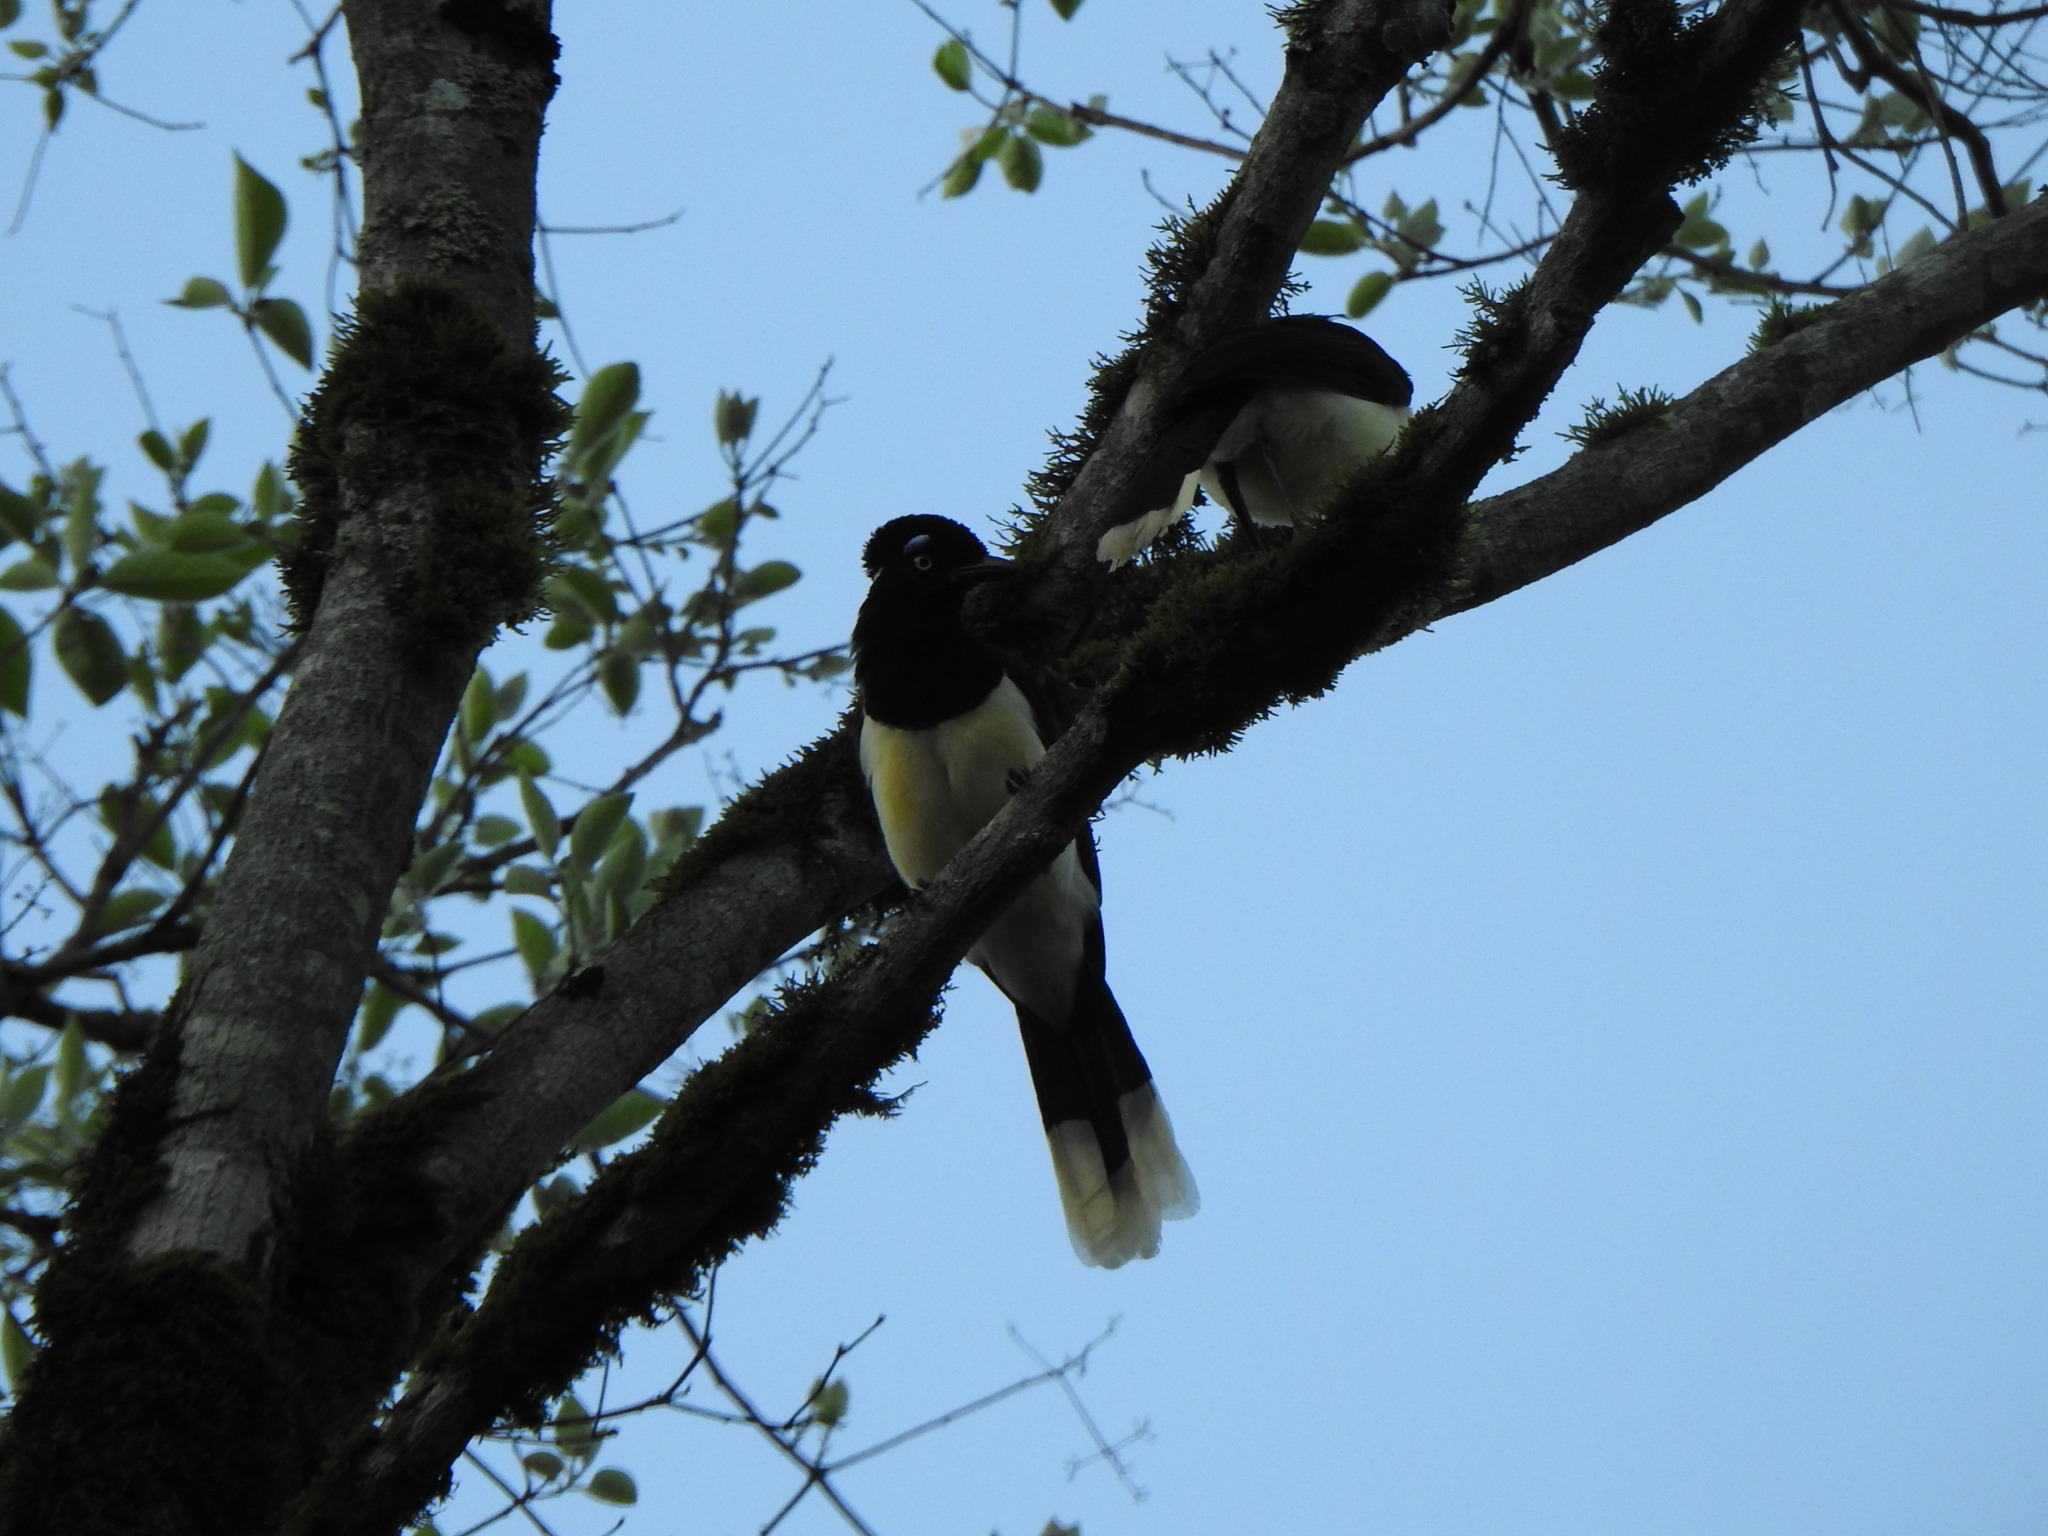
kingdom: Animalia
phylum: Chordata
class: Aves
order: Passeriformes
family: Corvidae
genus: Cyanocorax
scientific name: Cyanocorax chrysops
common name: Plush-crested jay
